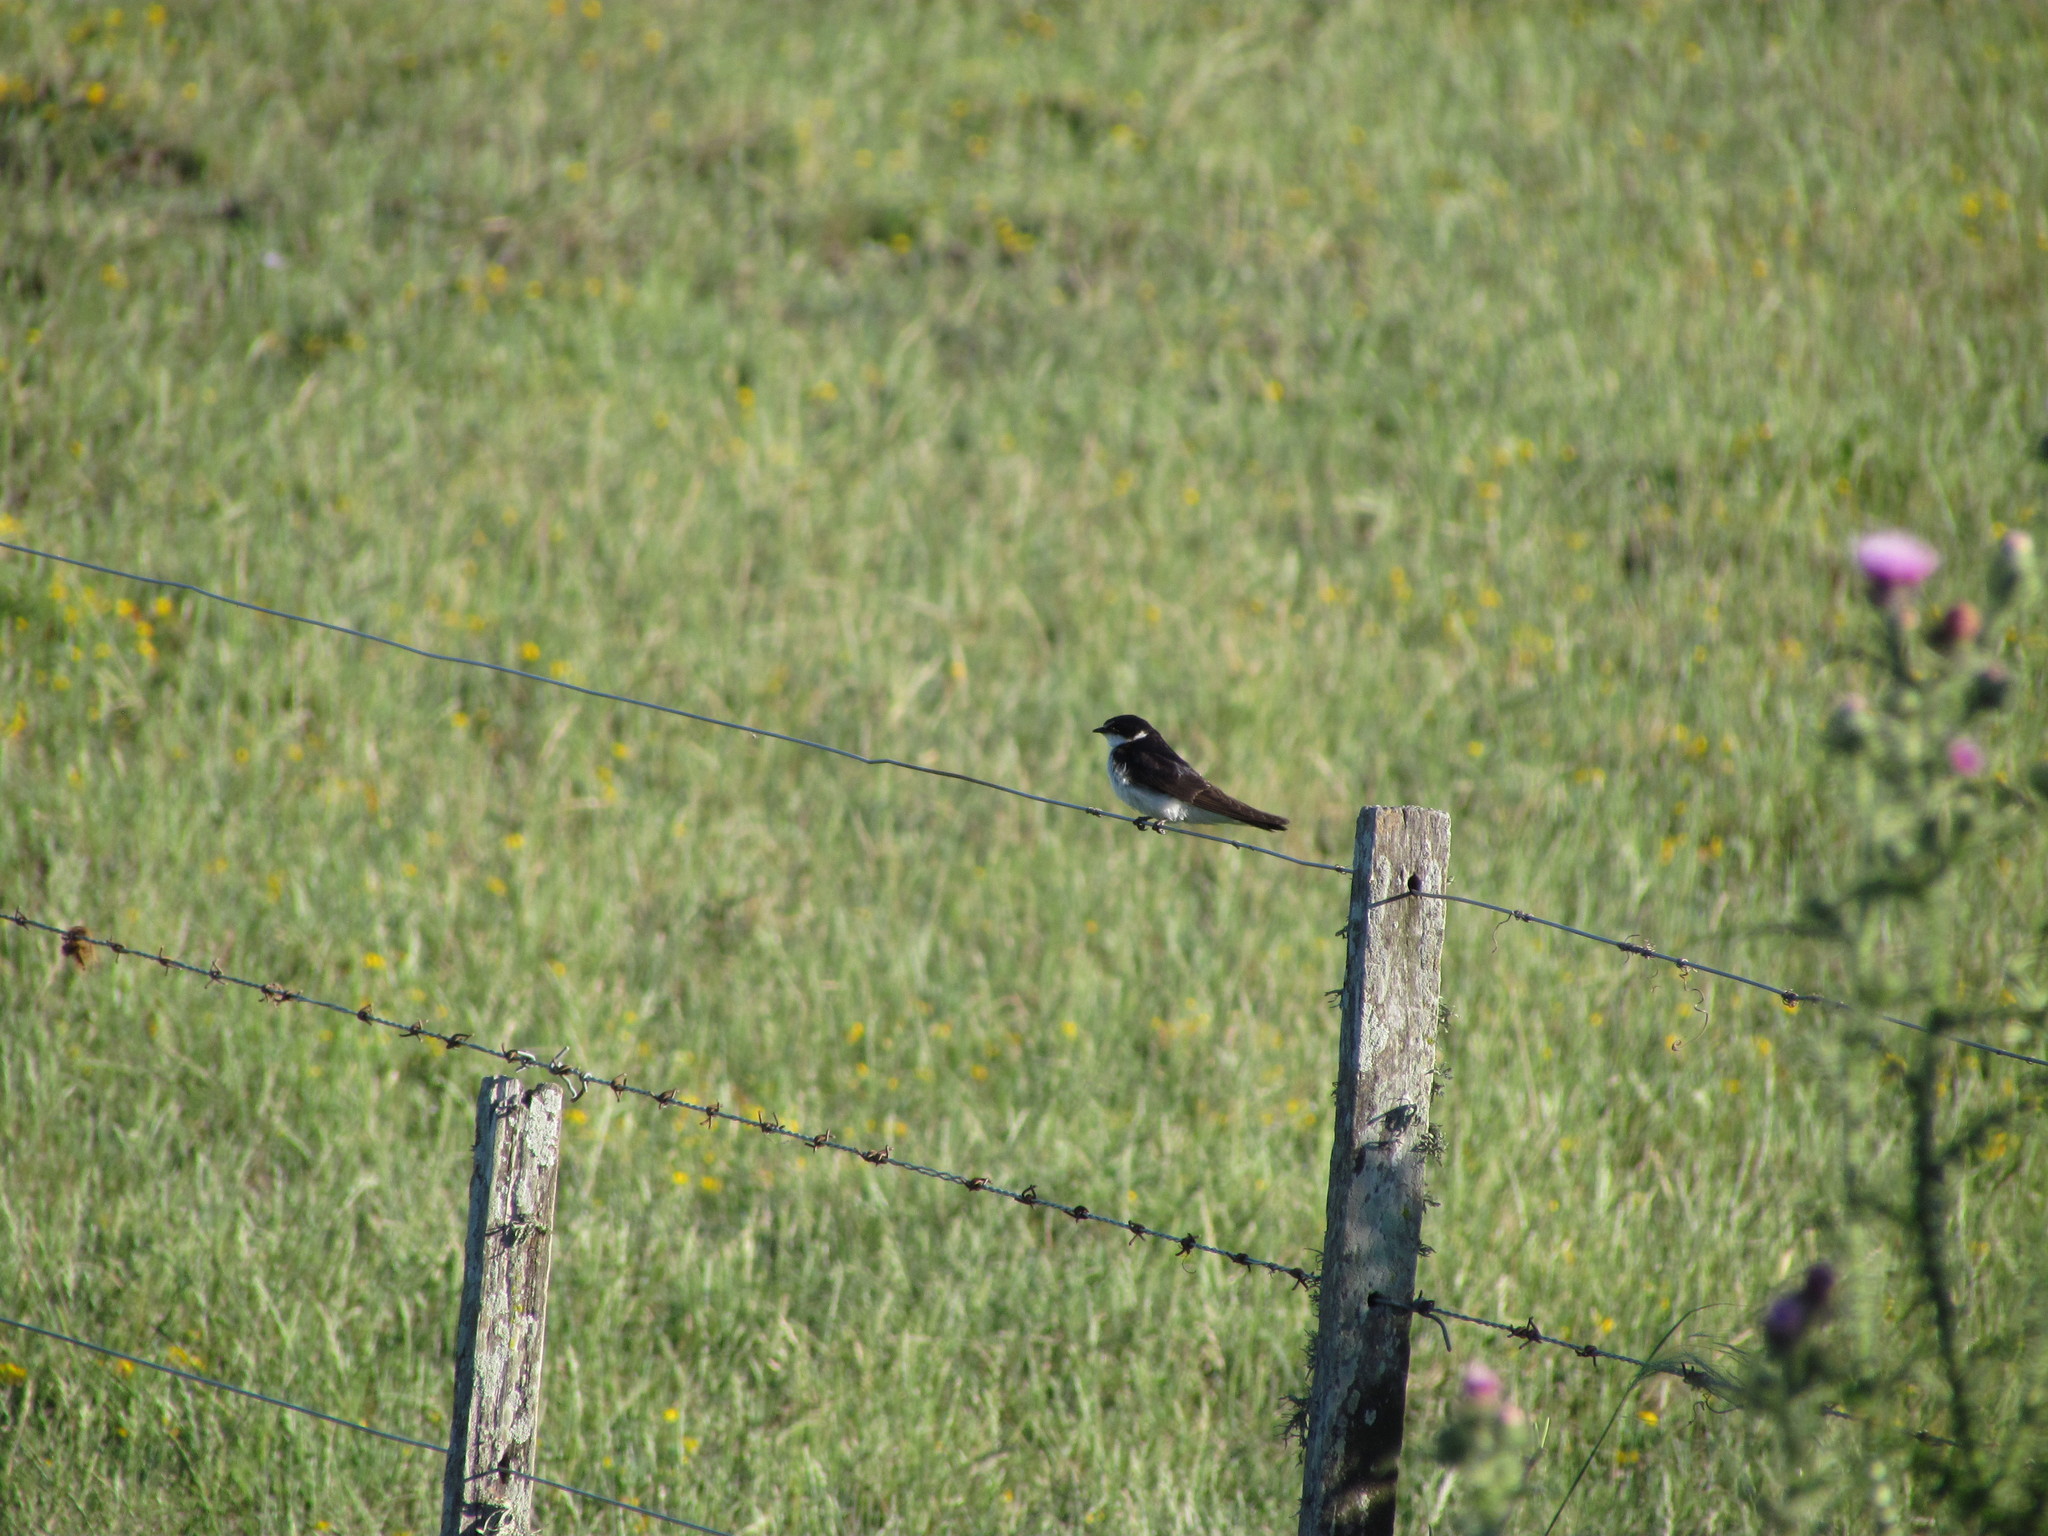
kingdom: Animalia
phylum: Chordata
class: Aves
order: Passeriformes
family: Hirundinidae
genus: Tachycineta
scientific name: Tachycineta leucorrhoa
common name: White-rumped swallow
